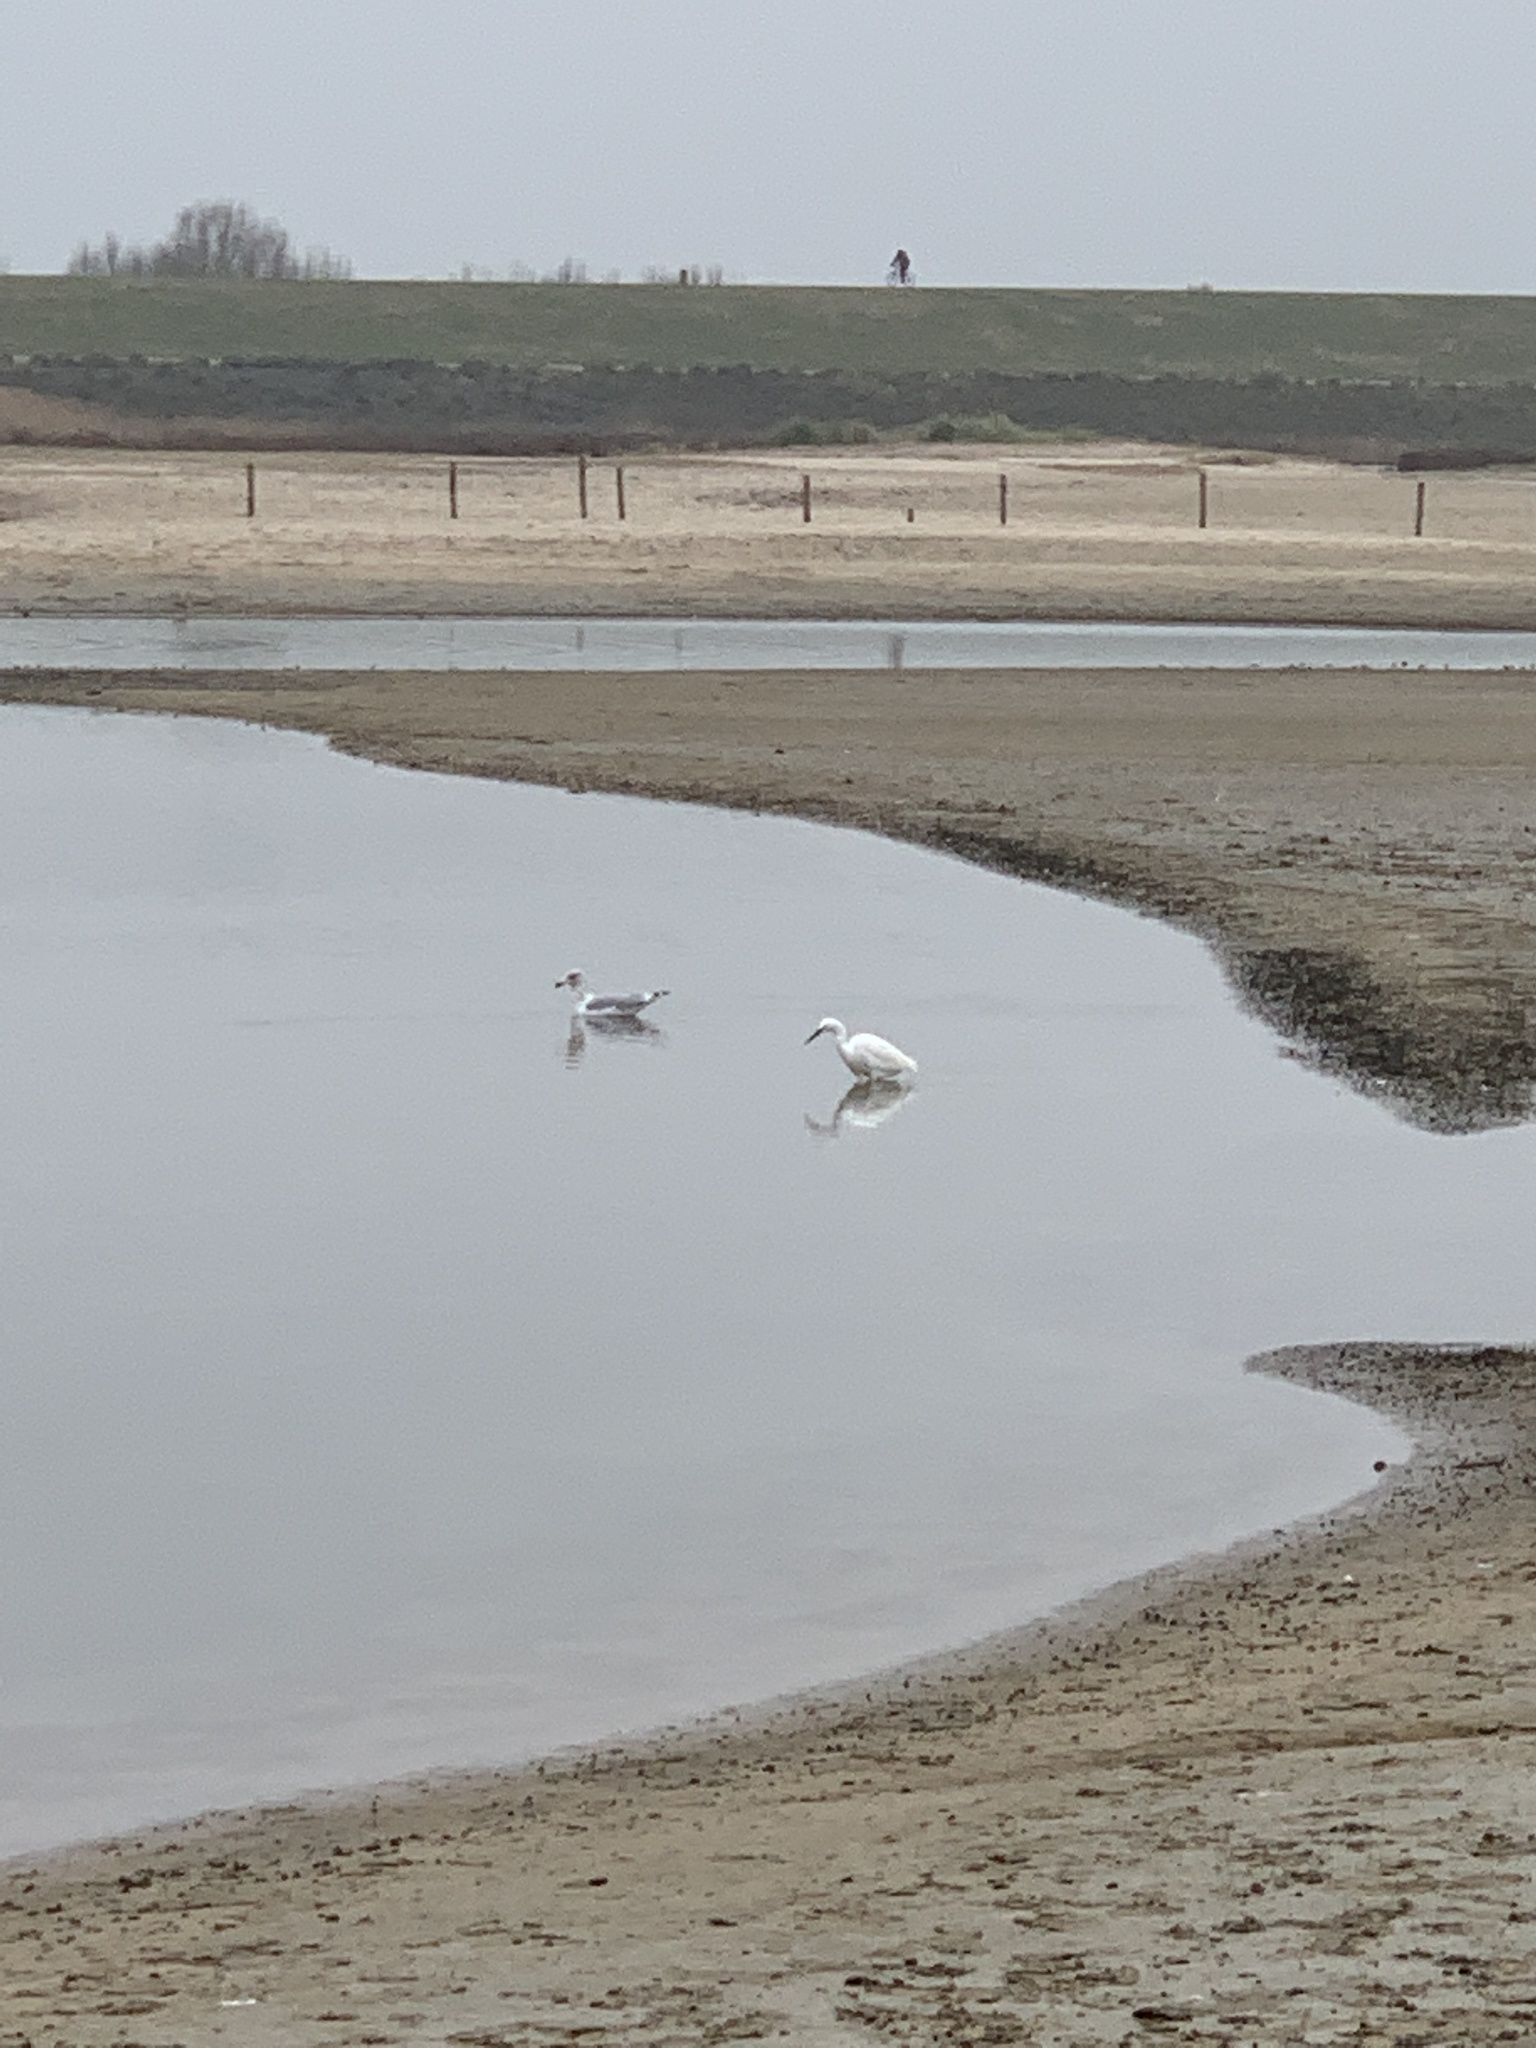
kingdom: Animalia
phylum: Chordata
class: Aves
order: Pelecaniformes
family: Ardeidae
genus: Egretta
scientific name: Egretta garzetta
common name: Little egret
